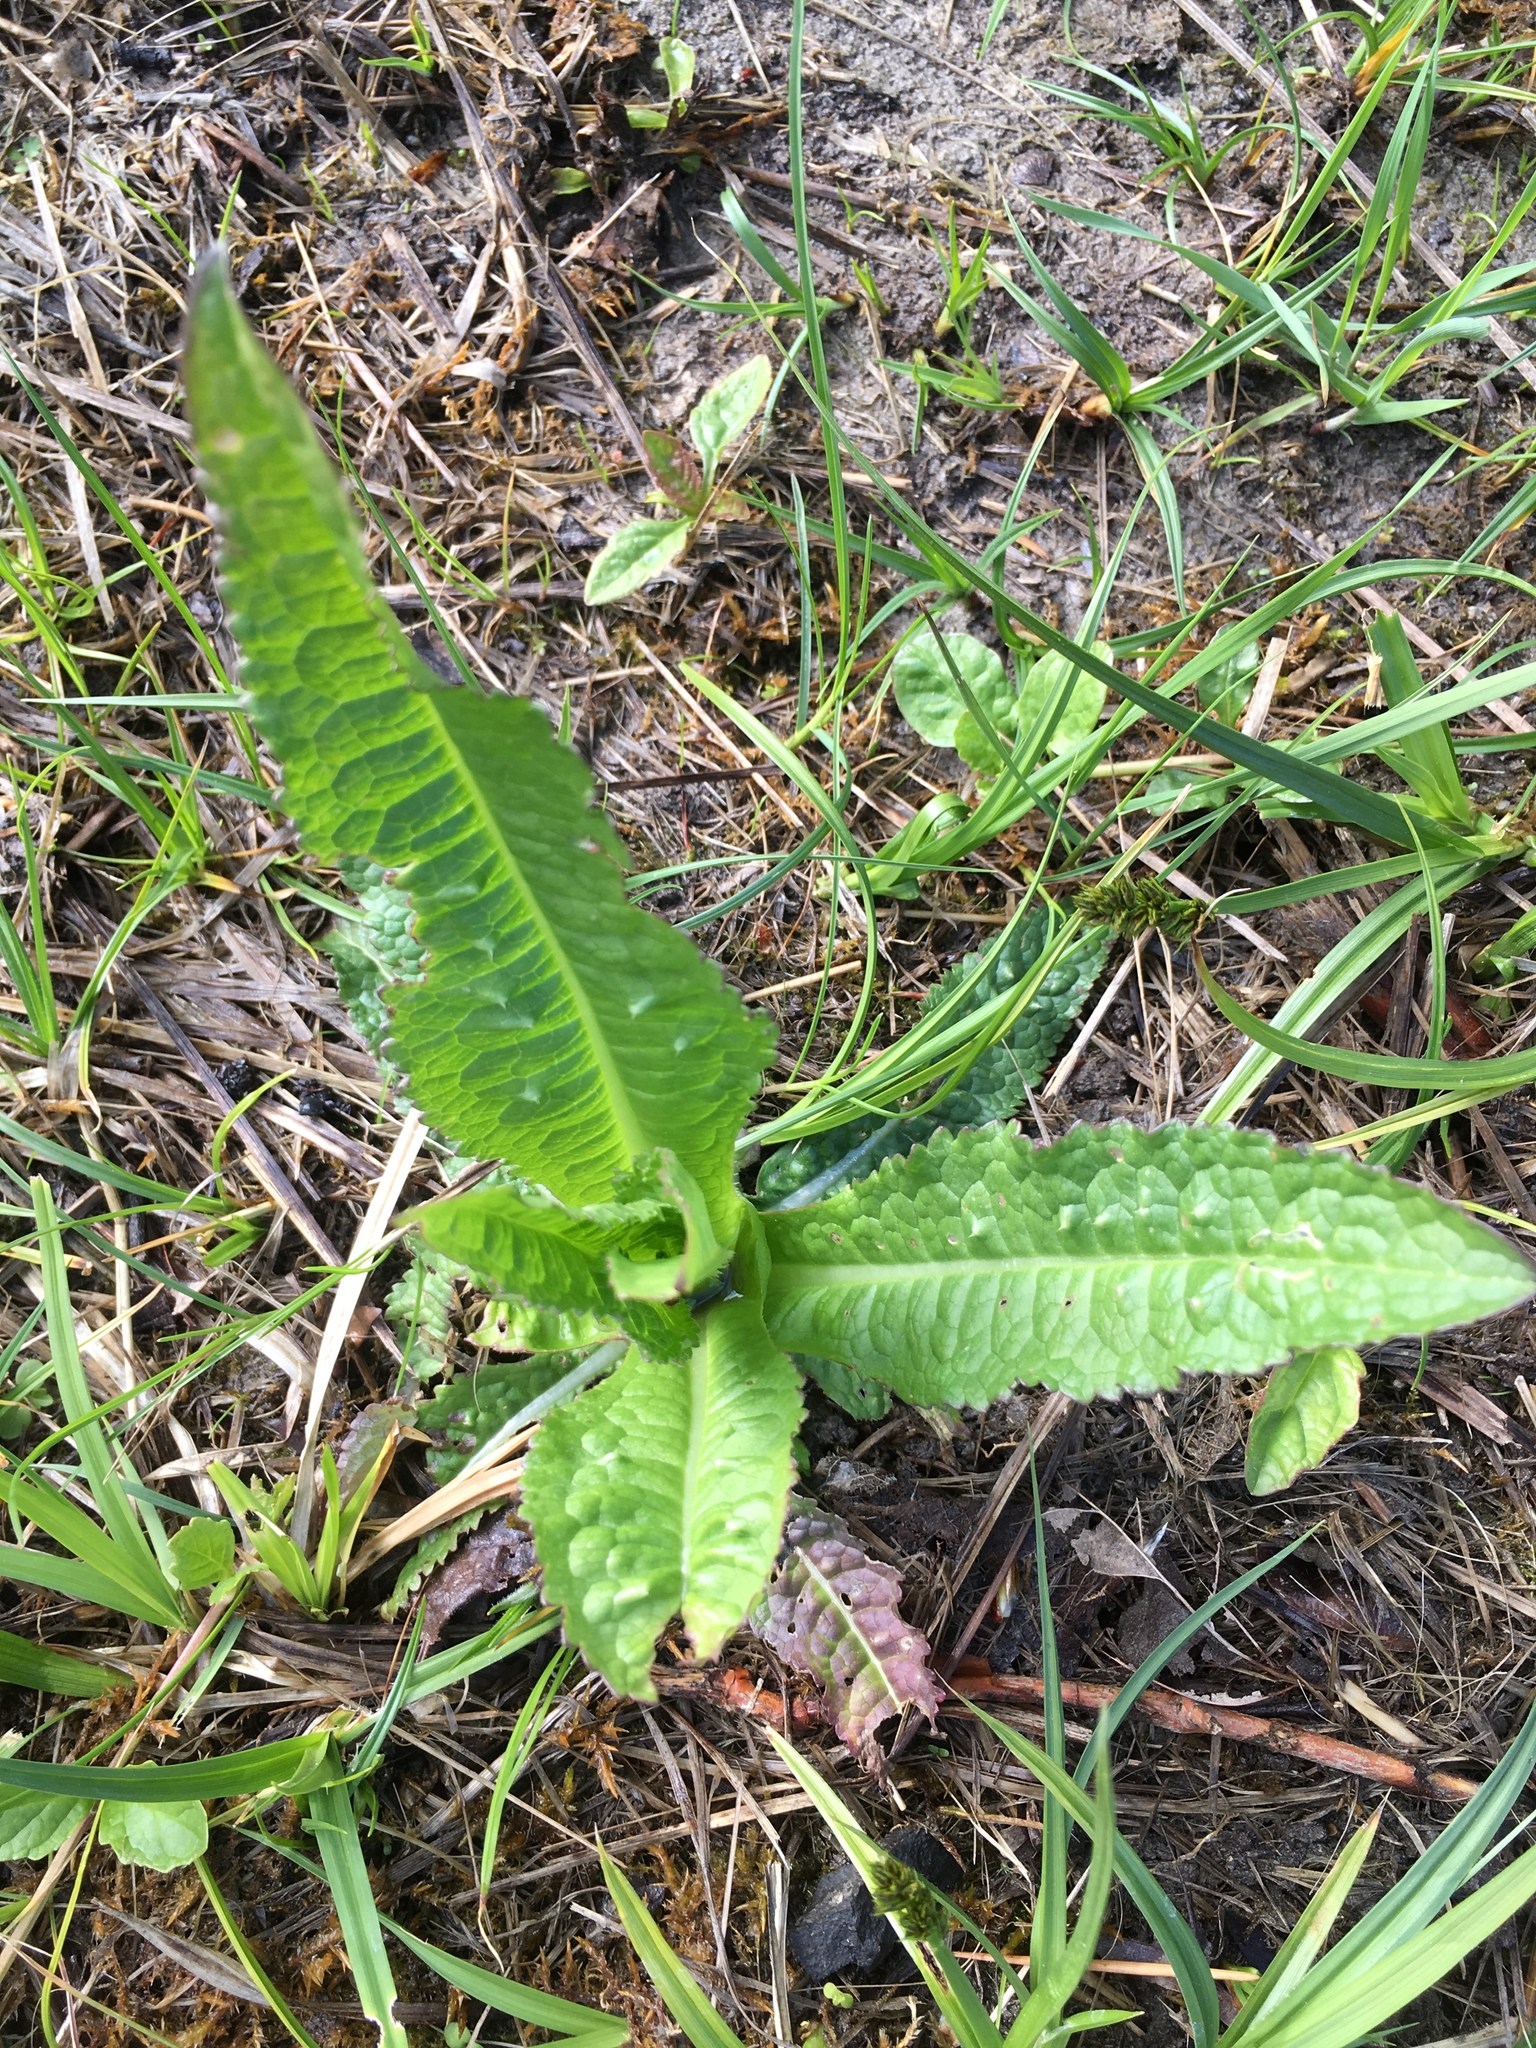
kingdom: Plantae
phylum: Tracheophyta
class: Magnoliopsida
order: Dipsacales
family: Caprifoliaceae
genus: Dipsacus
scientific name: Dipsacus fullonum
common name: Teasel
